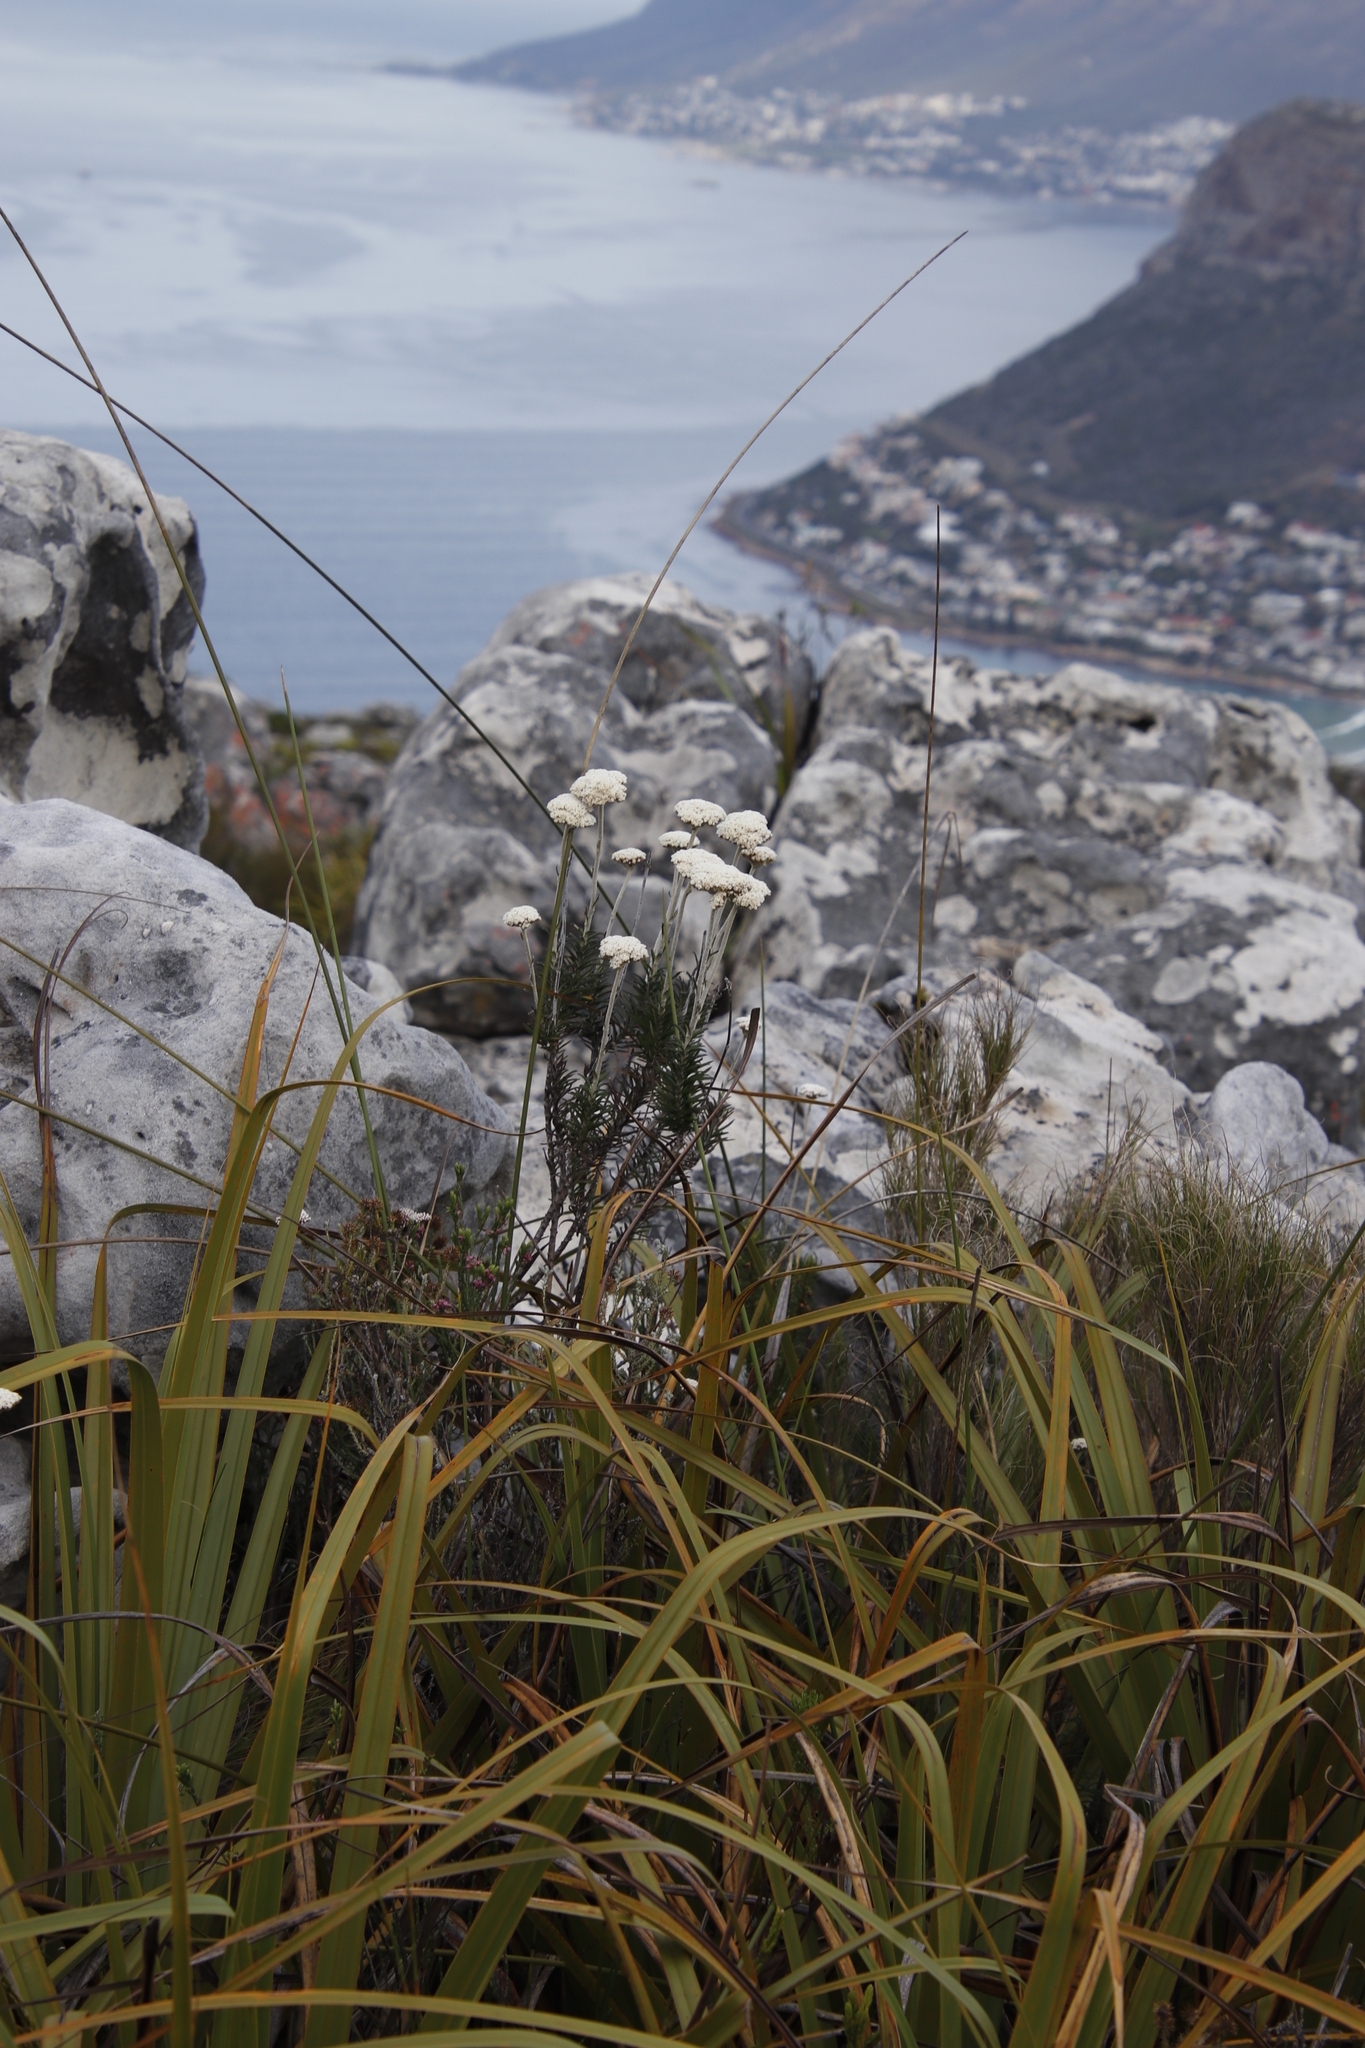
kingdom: Plantae
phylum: Tracheophyta
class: Magnoliopsida
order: Asterales
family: Asteraceae
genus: Anaxeton
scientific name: Anaxeton arborescens
